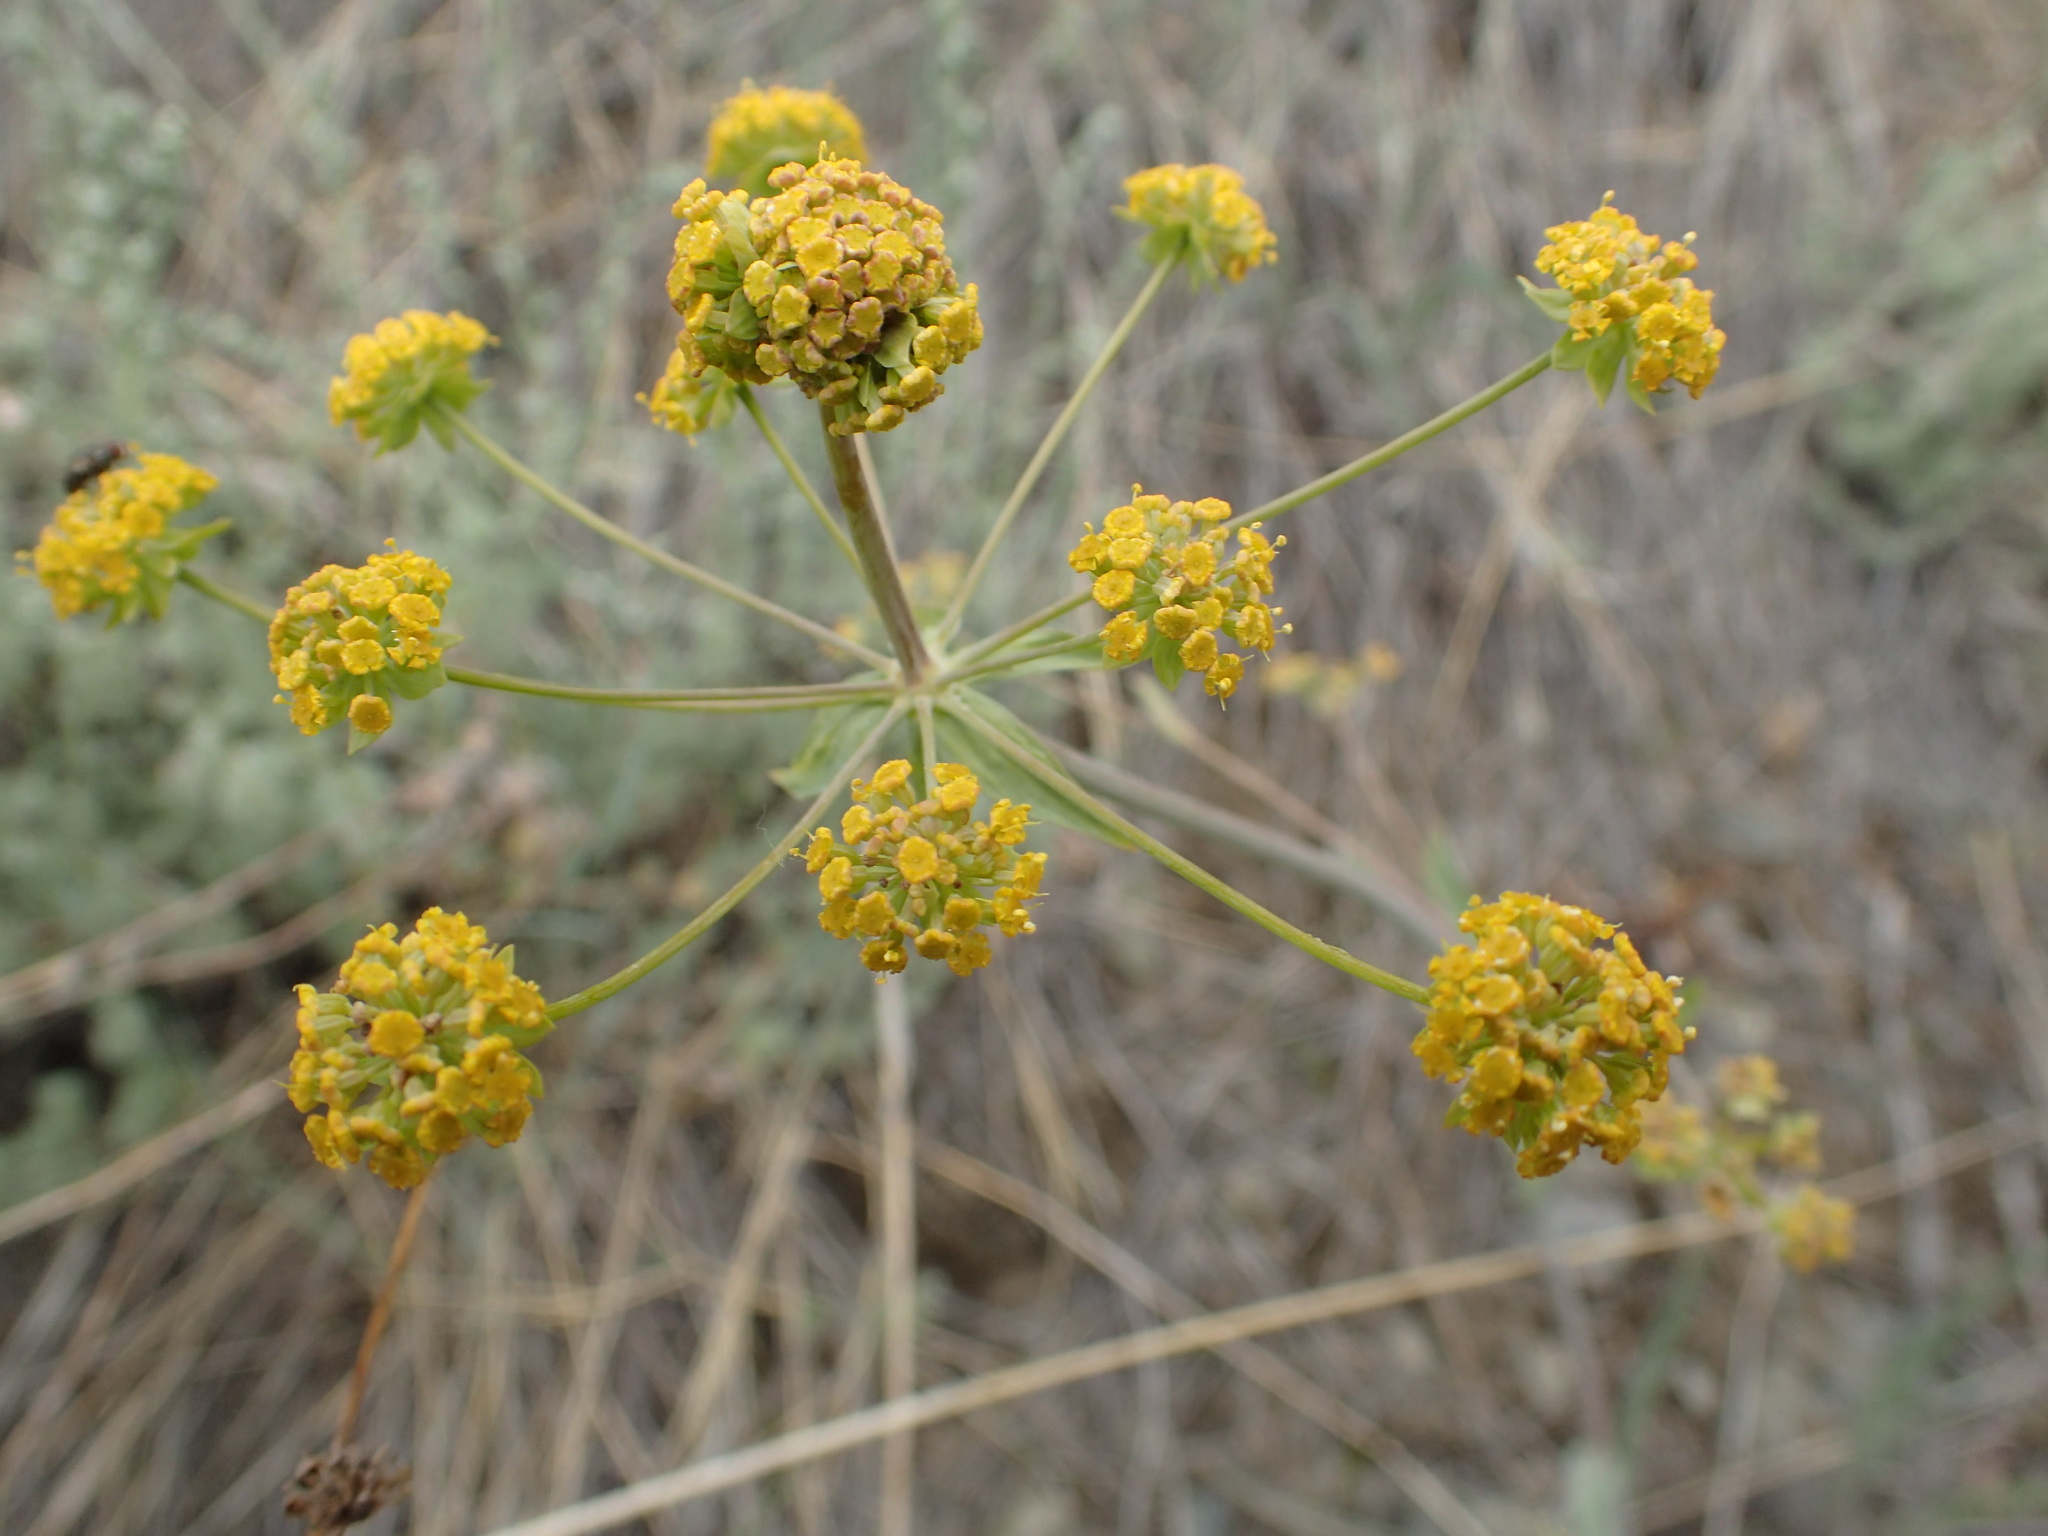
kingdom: Plantae
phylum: Tracheophyta
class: Magnoliopsida
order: Apiales
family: Apiaceae
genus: Bupleurum
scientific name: Bupleurum americanum
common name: American thoroughwax
